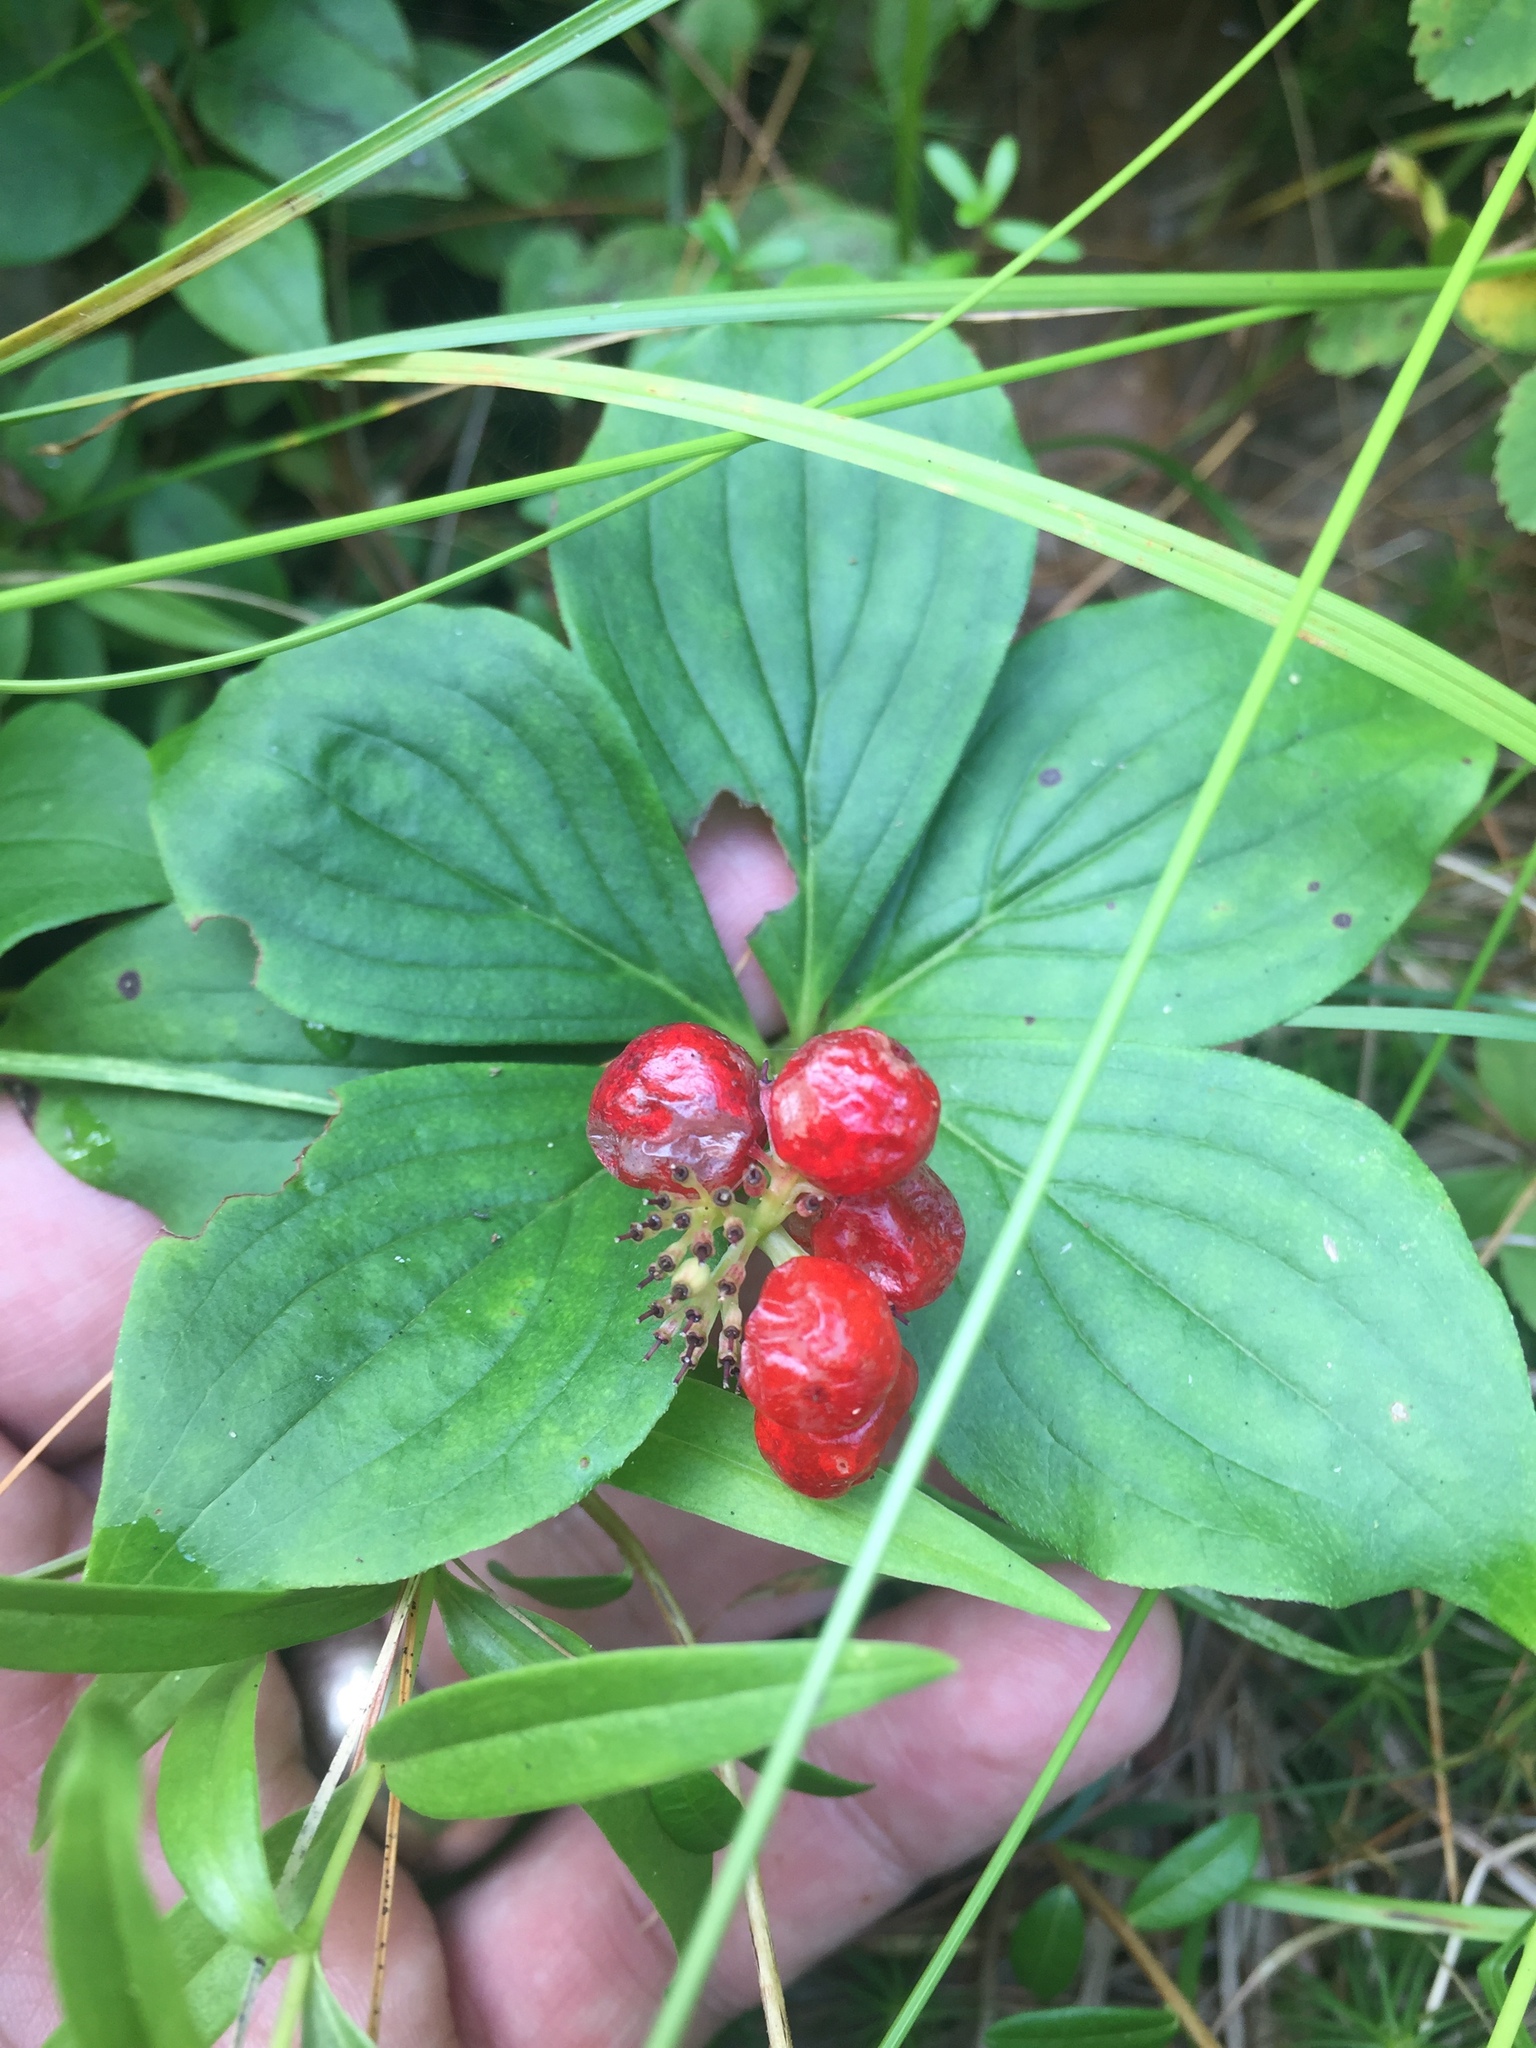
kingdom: Plantae
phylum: Tracheophyta
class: Magnoliopsida
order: Cornales
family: Cornaceae
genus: Cornus
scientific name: Cornus canadensis
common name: Creeping dogwood
